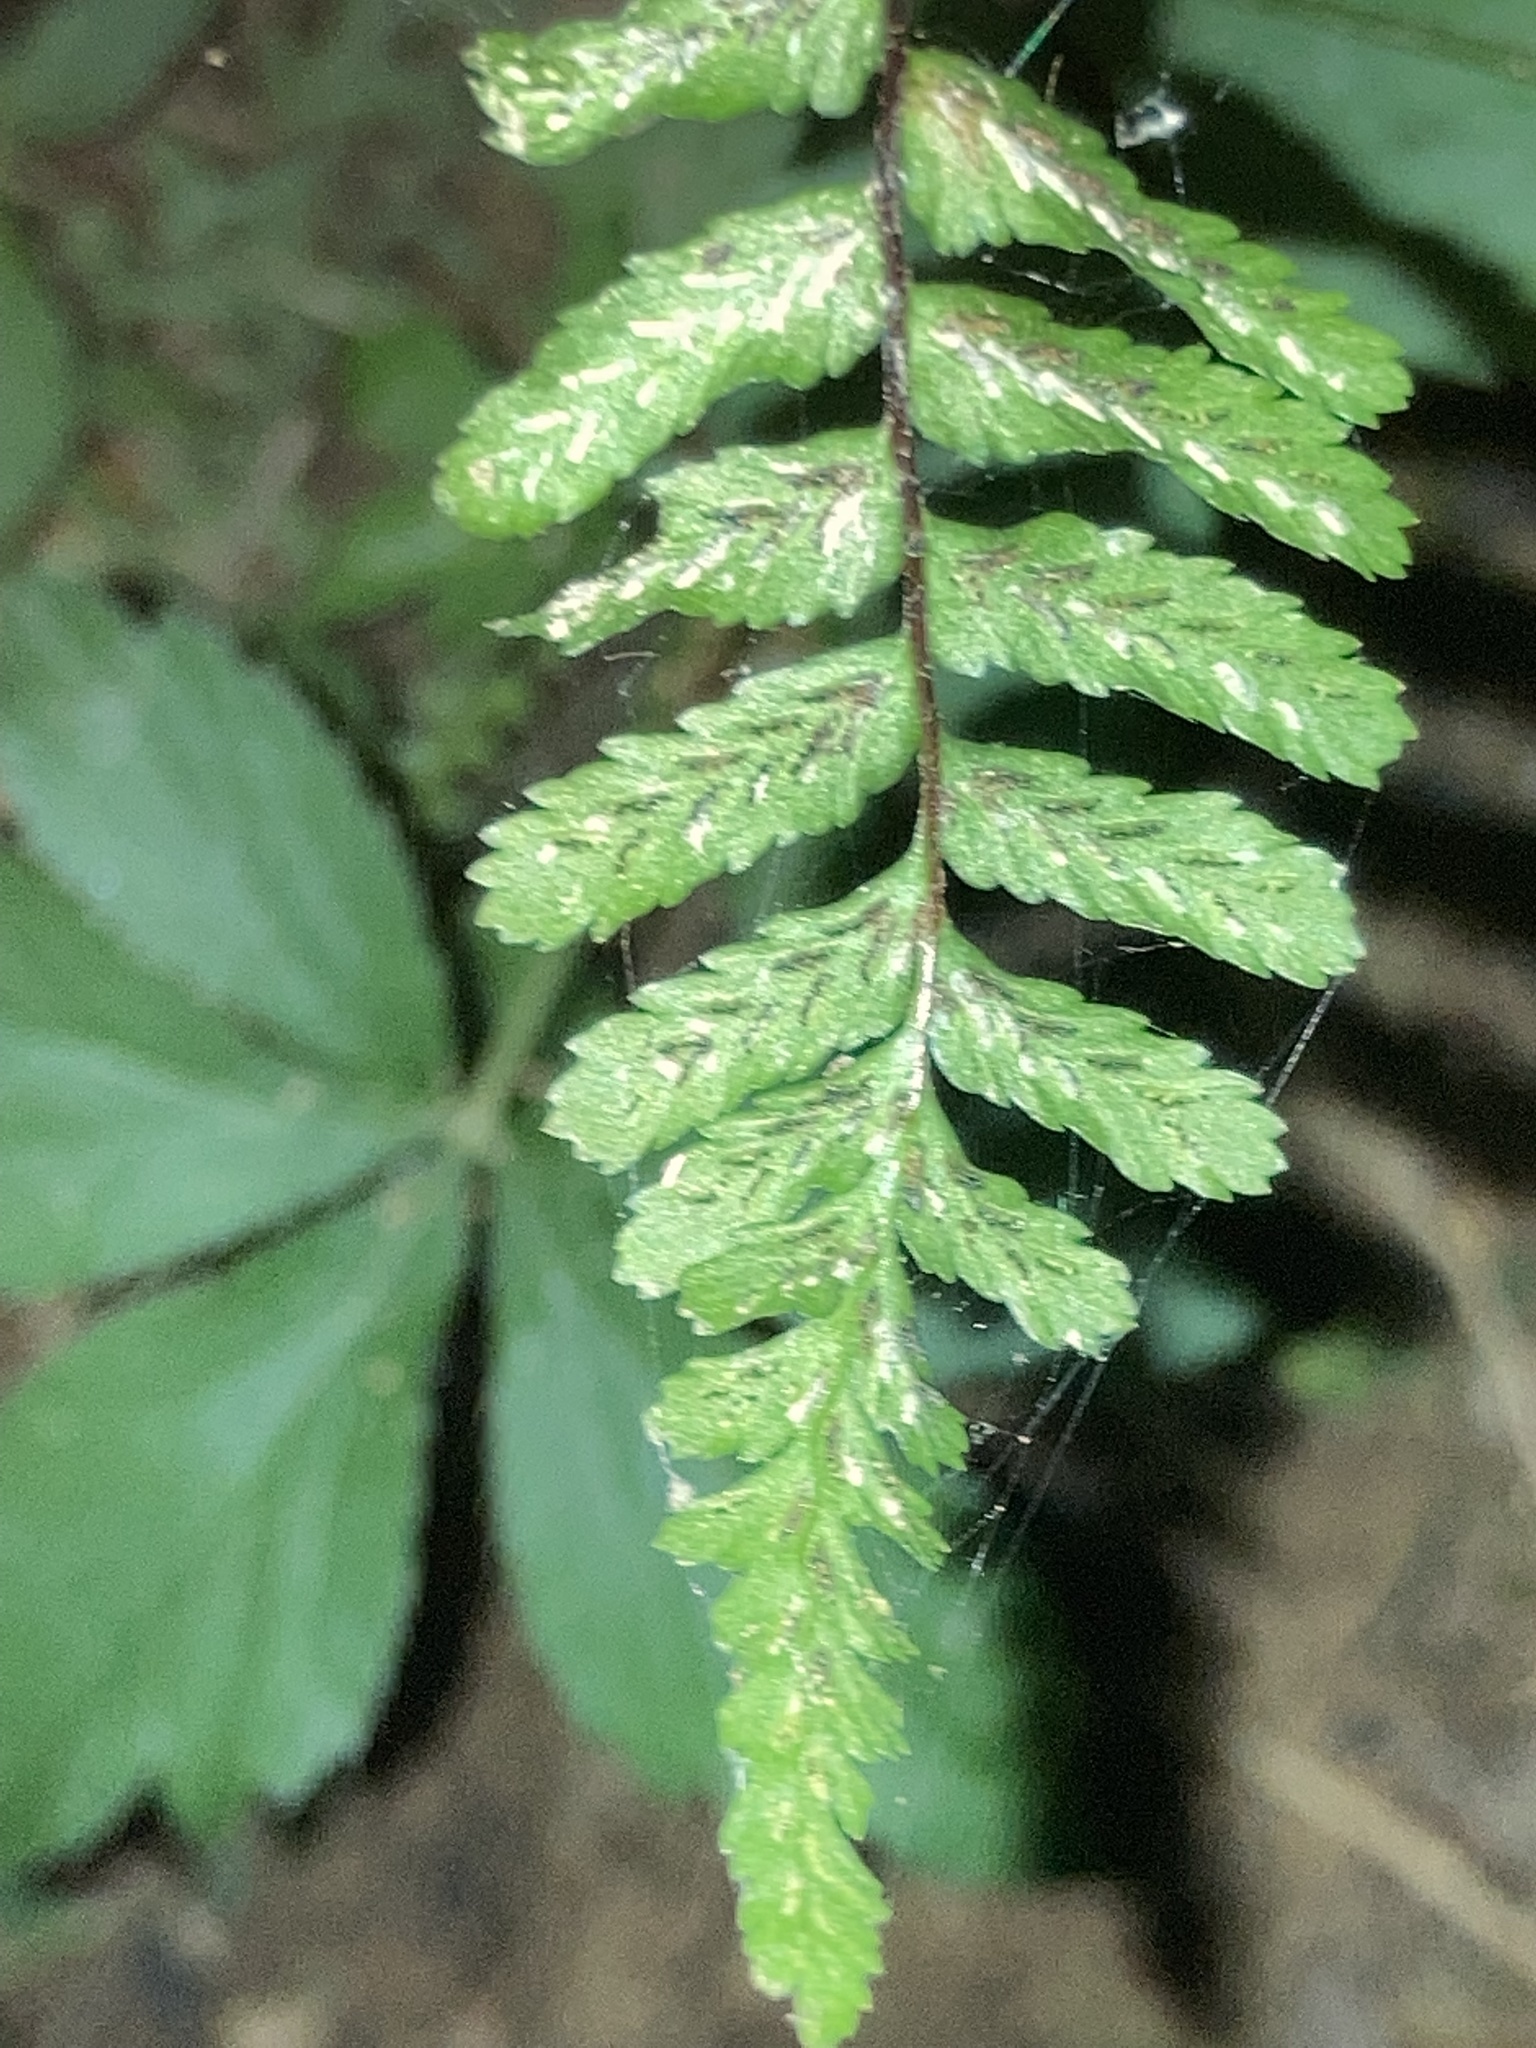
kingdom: Plantae
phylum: Tracheophyta
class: Polypodiopsida
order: Polypodiales
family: Aspleniaceae
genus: Asplenium
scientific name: Asplenium platyneuron
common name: Ebony spleenwort
